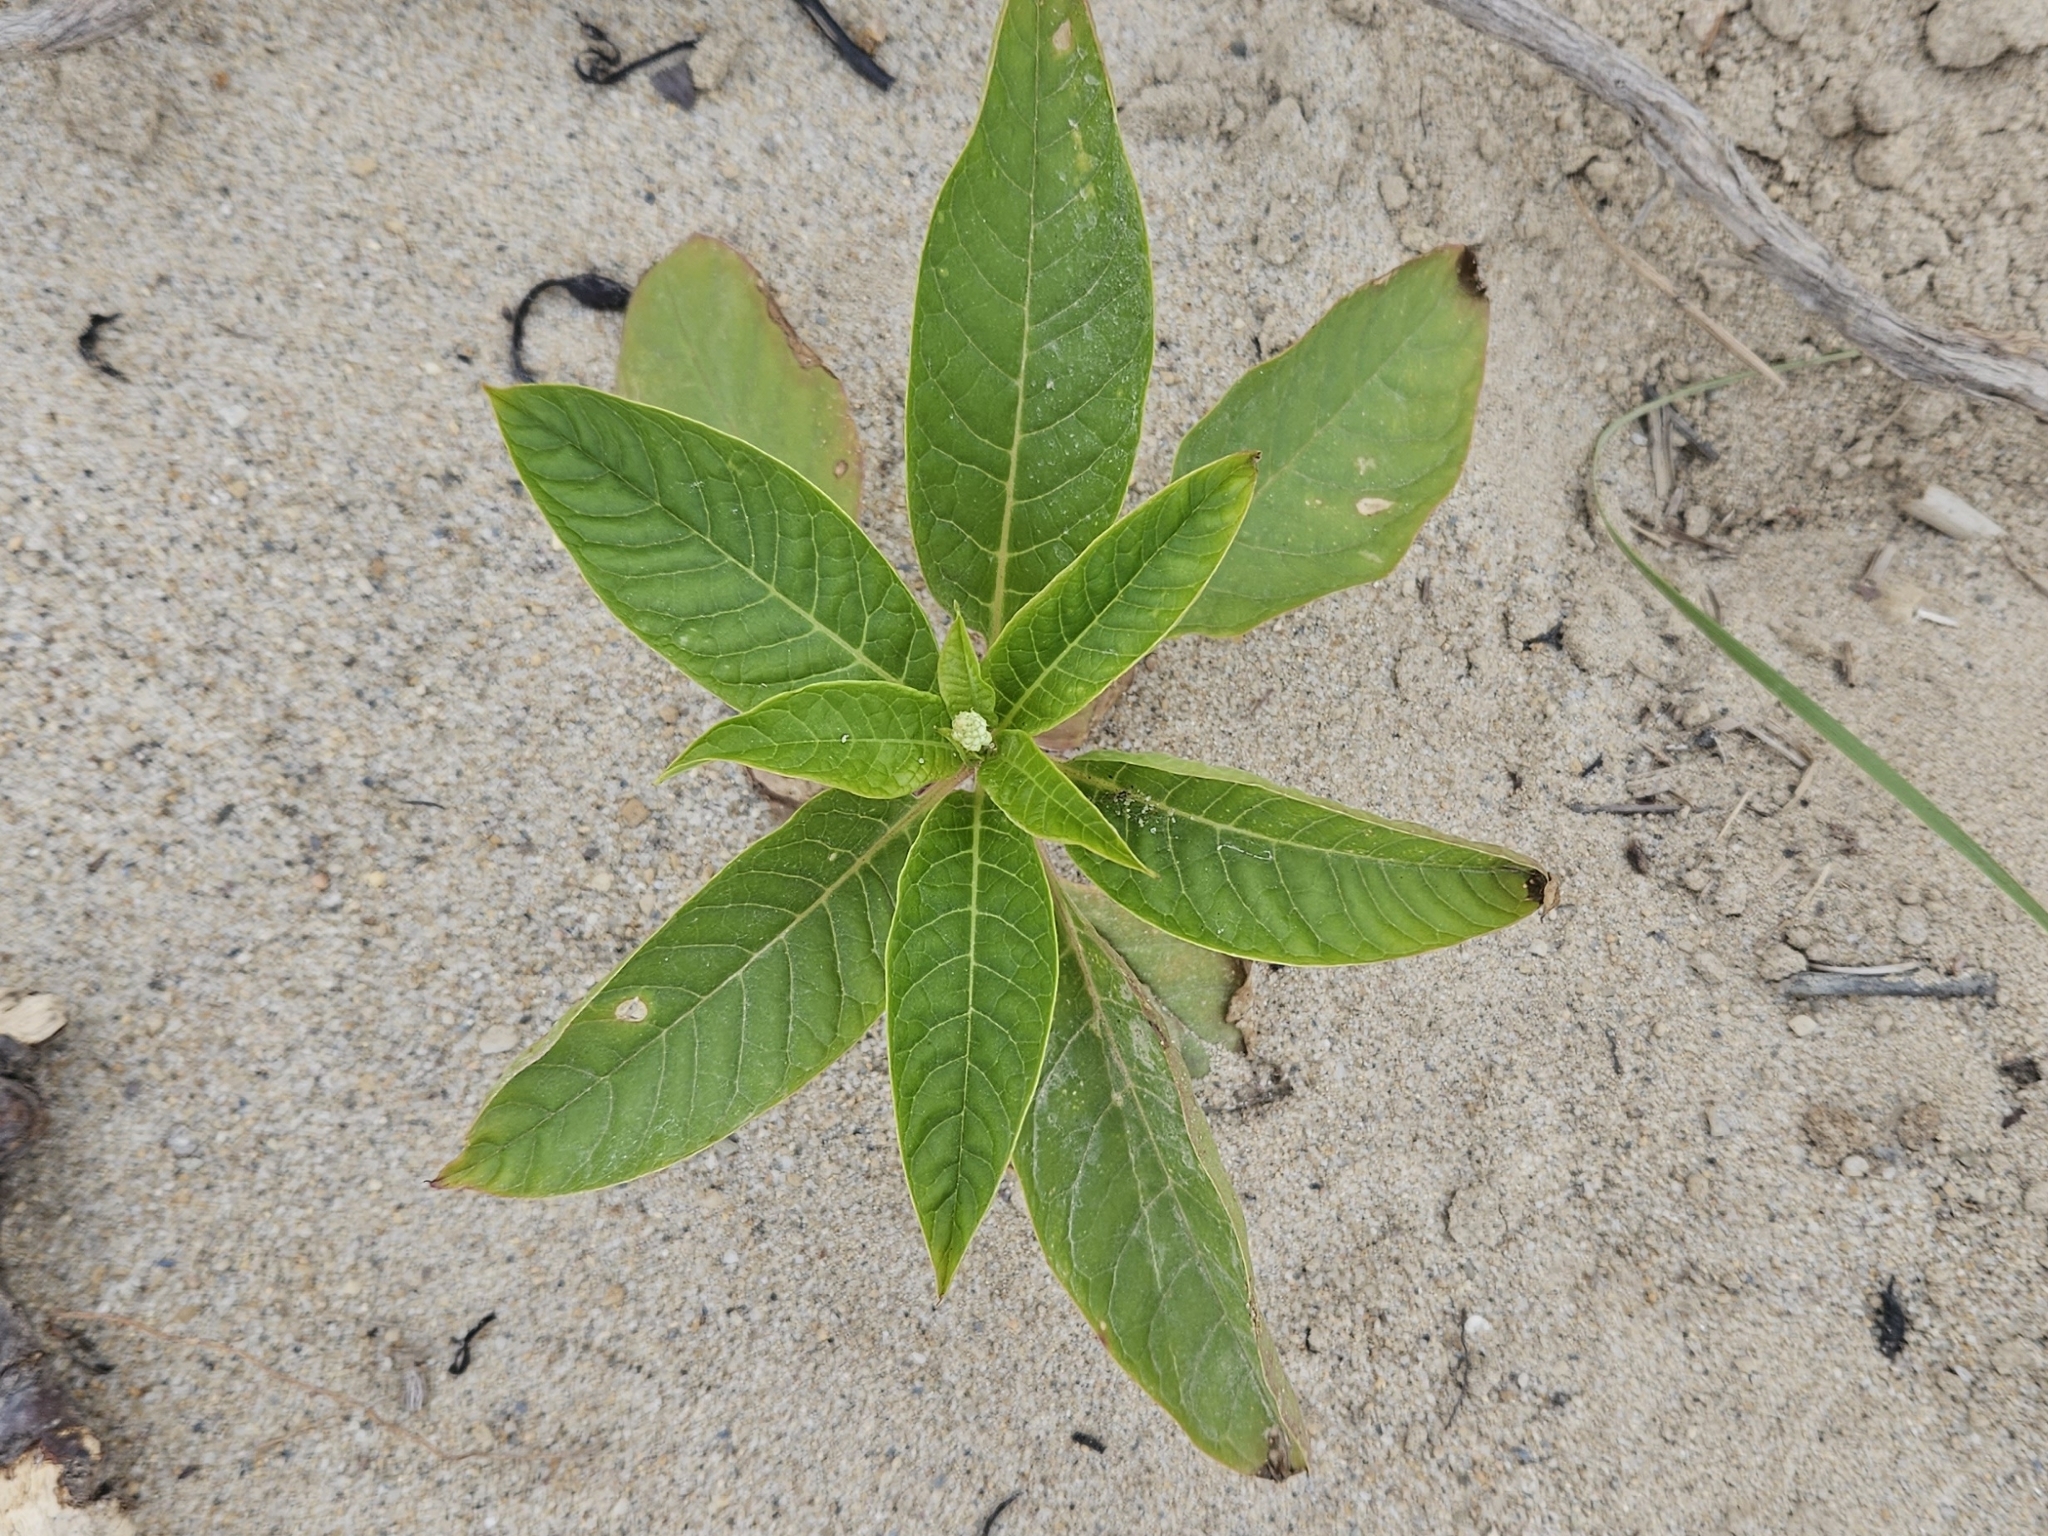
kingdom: Plantae
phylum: Tracheophyta
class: Magnoliopsida
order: Caryophyllales
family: Phytolaccaceae
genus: Phytolacca
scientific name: Phytolacca americana
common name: American pokeweed
